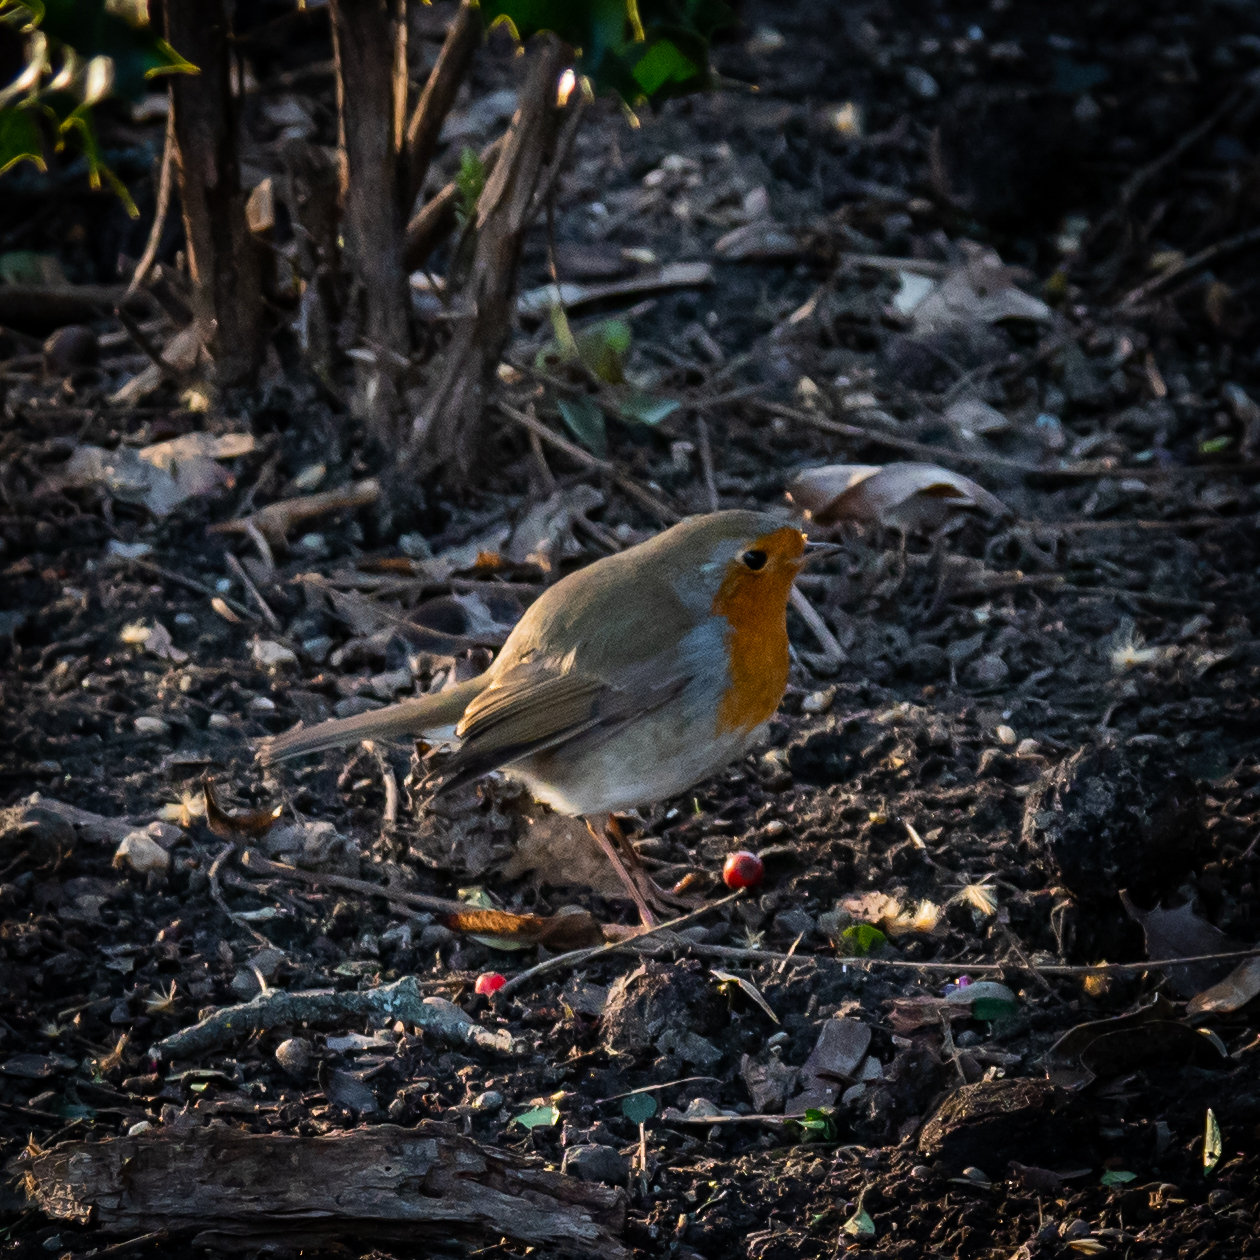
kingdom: Animalia
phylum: Chordata
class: Aves
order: Passeriformes
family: Muscicapidae
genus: Erithacus
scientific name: Erithacus rubecula
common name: European robin
